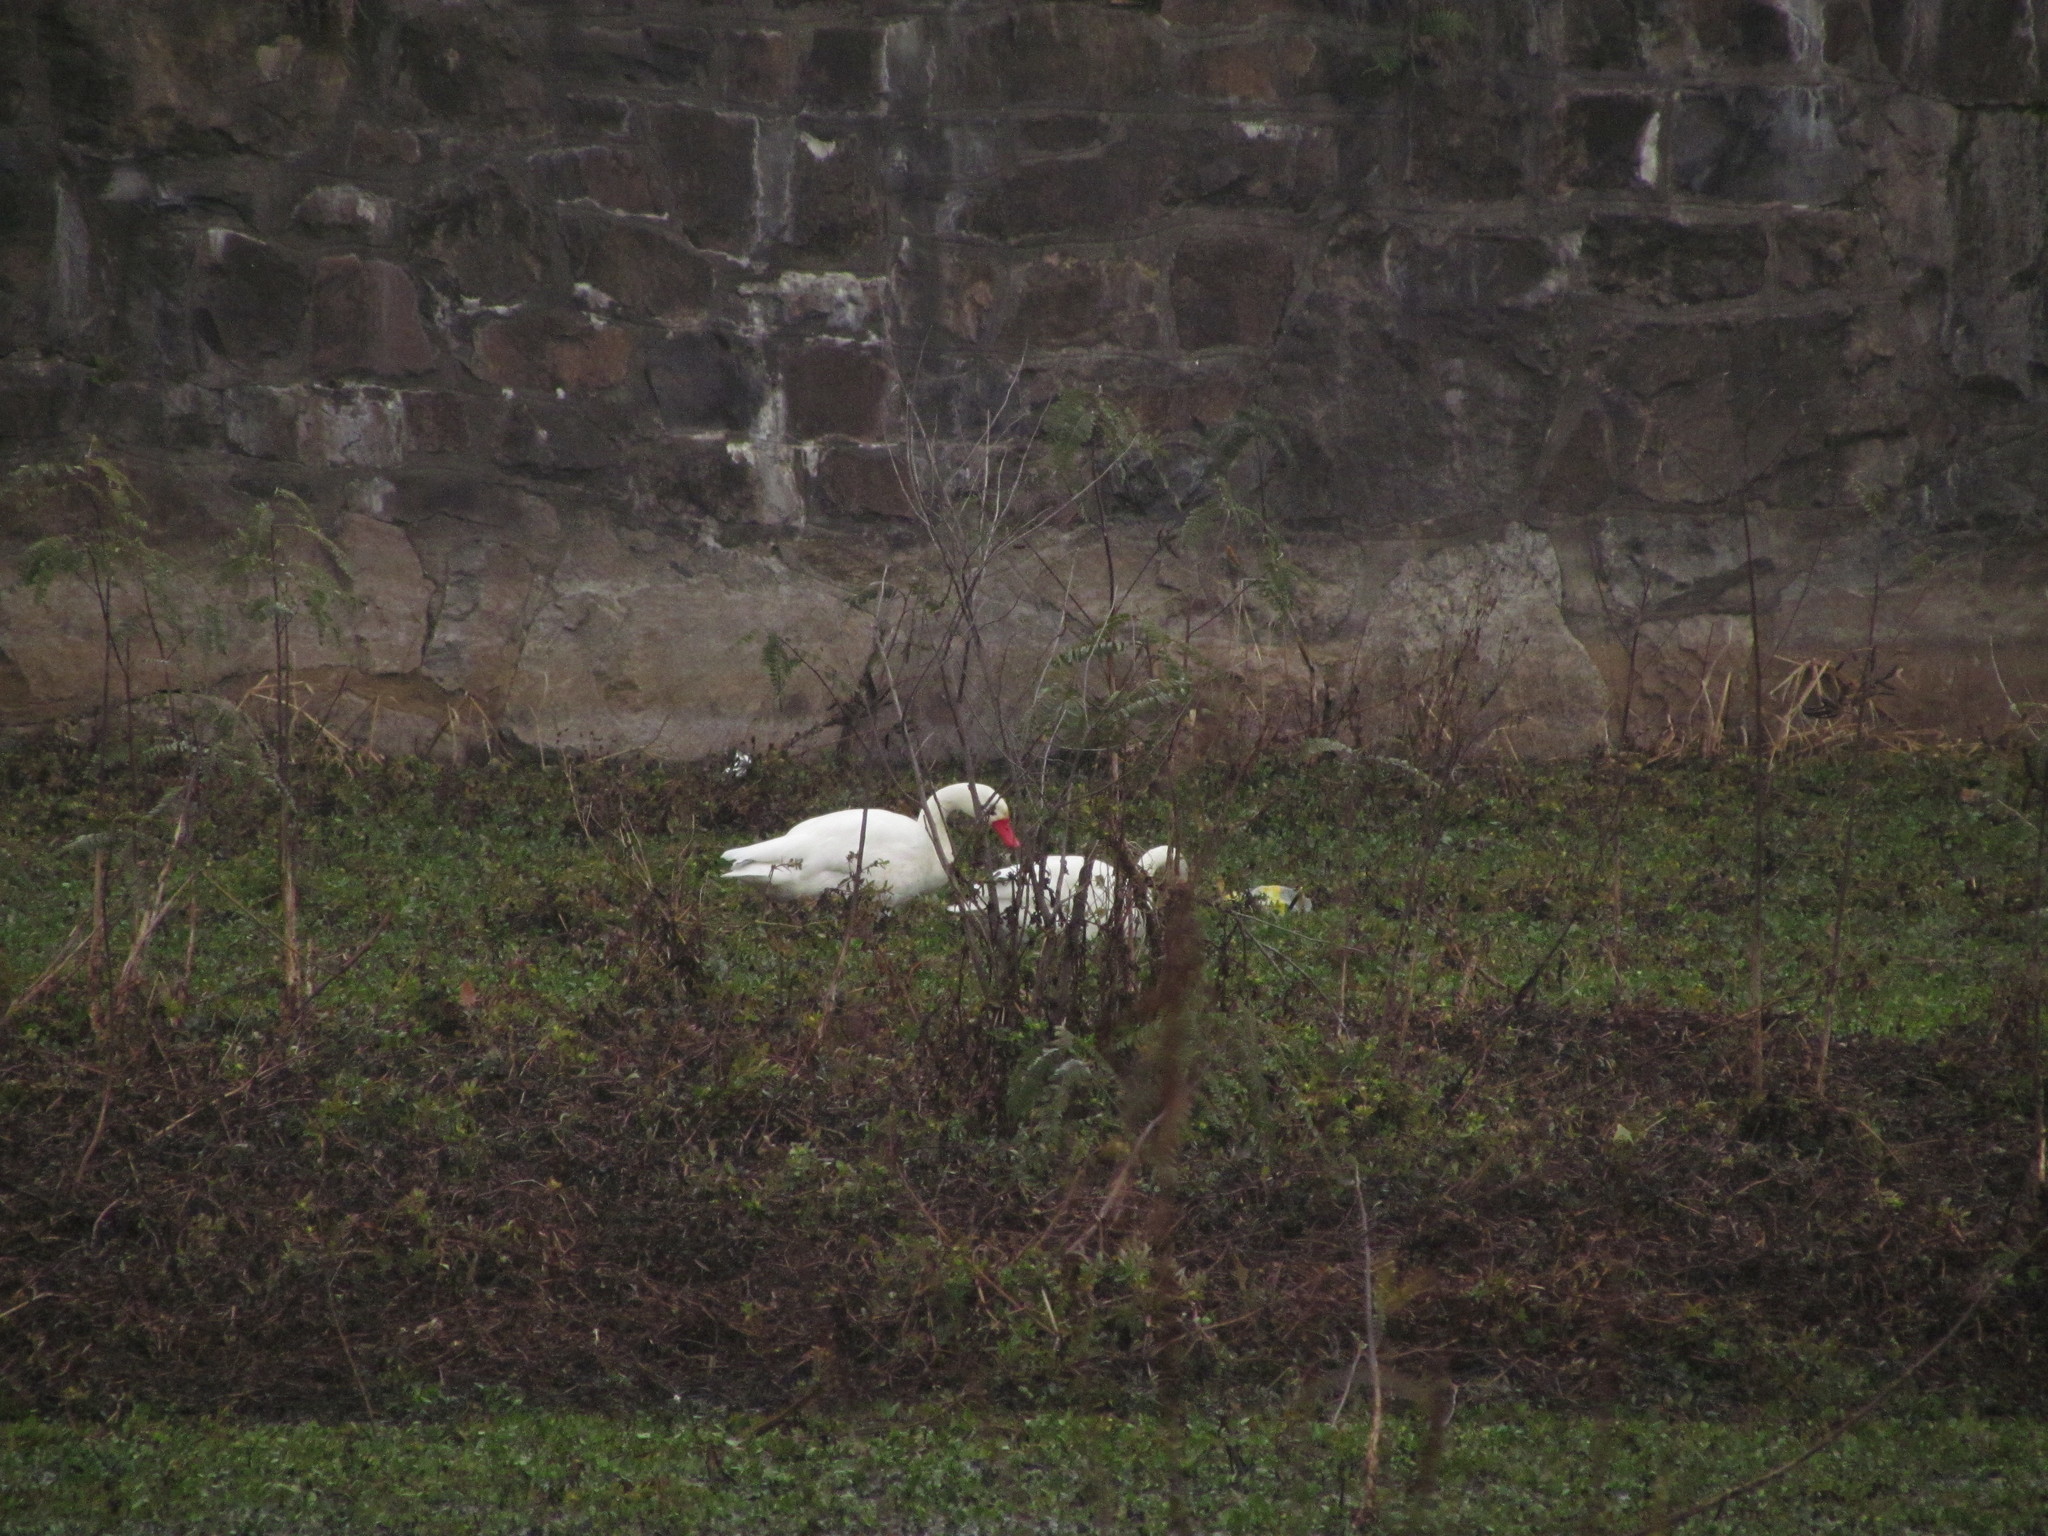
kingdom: Animalia
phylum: Chordata
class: Aves
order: Anseriformes
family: Anatidae
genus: Coscoroba
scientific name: Coscoroba coscoroba
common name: Coscoroba swan
